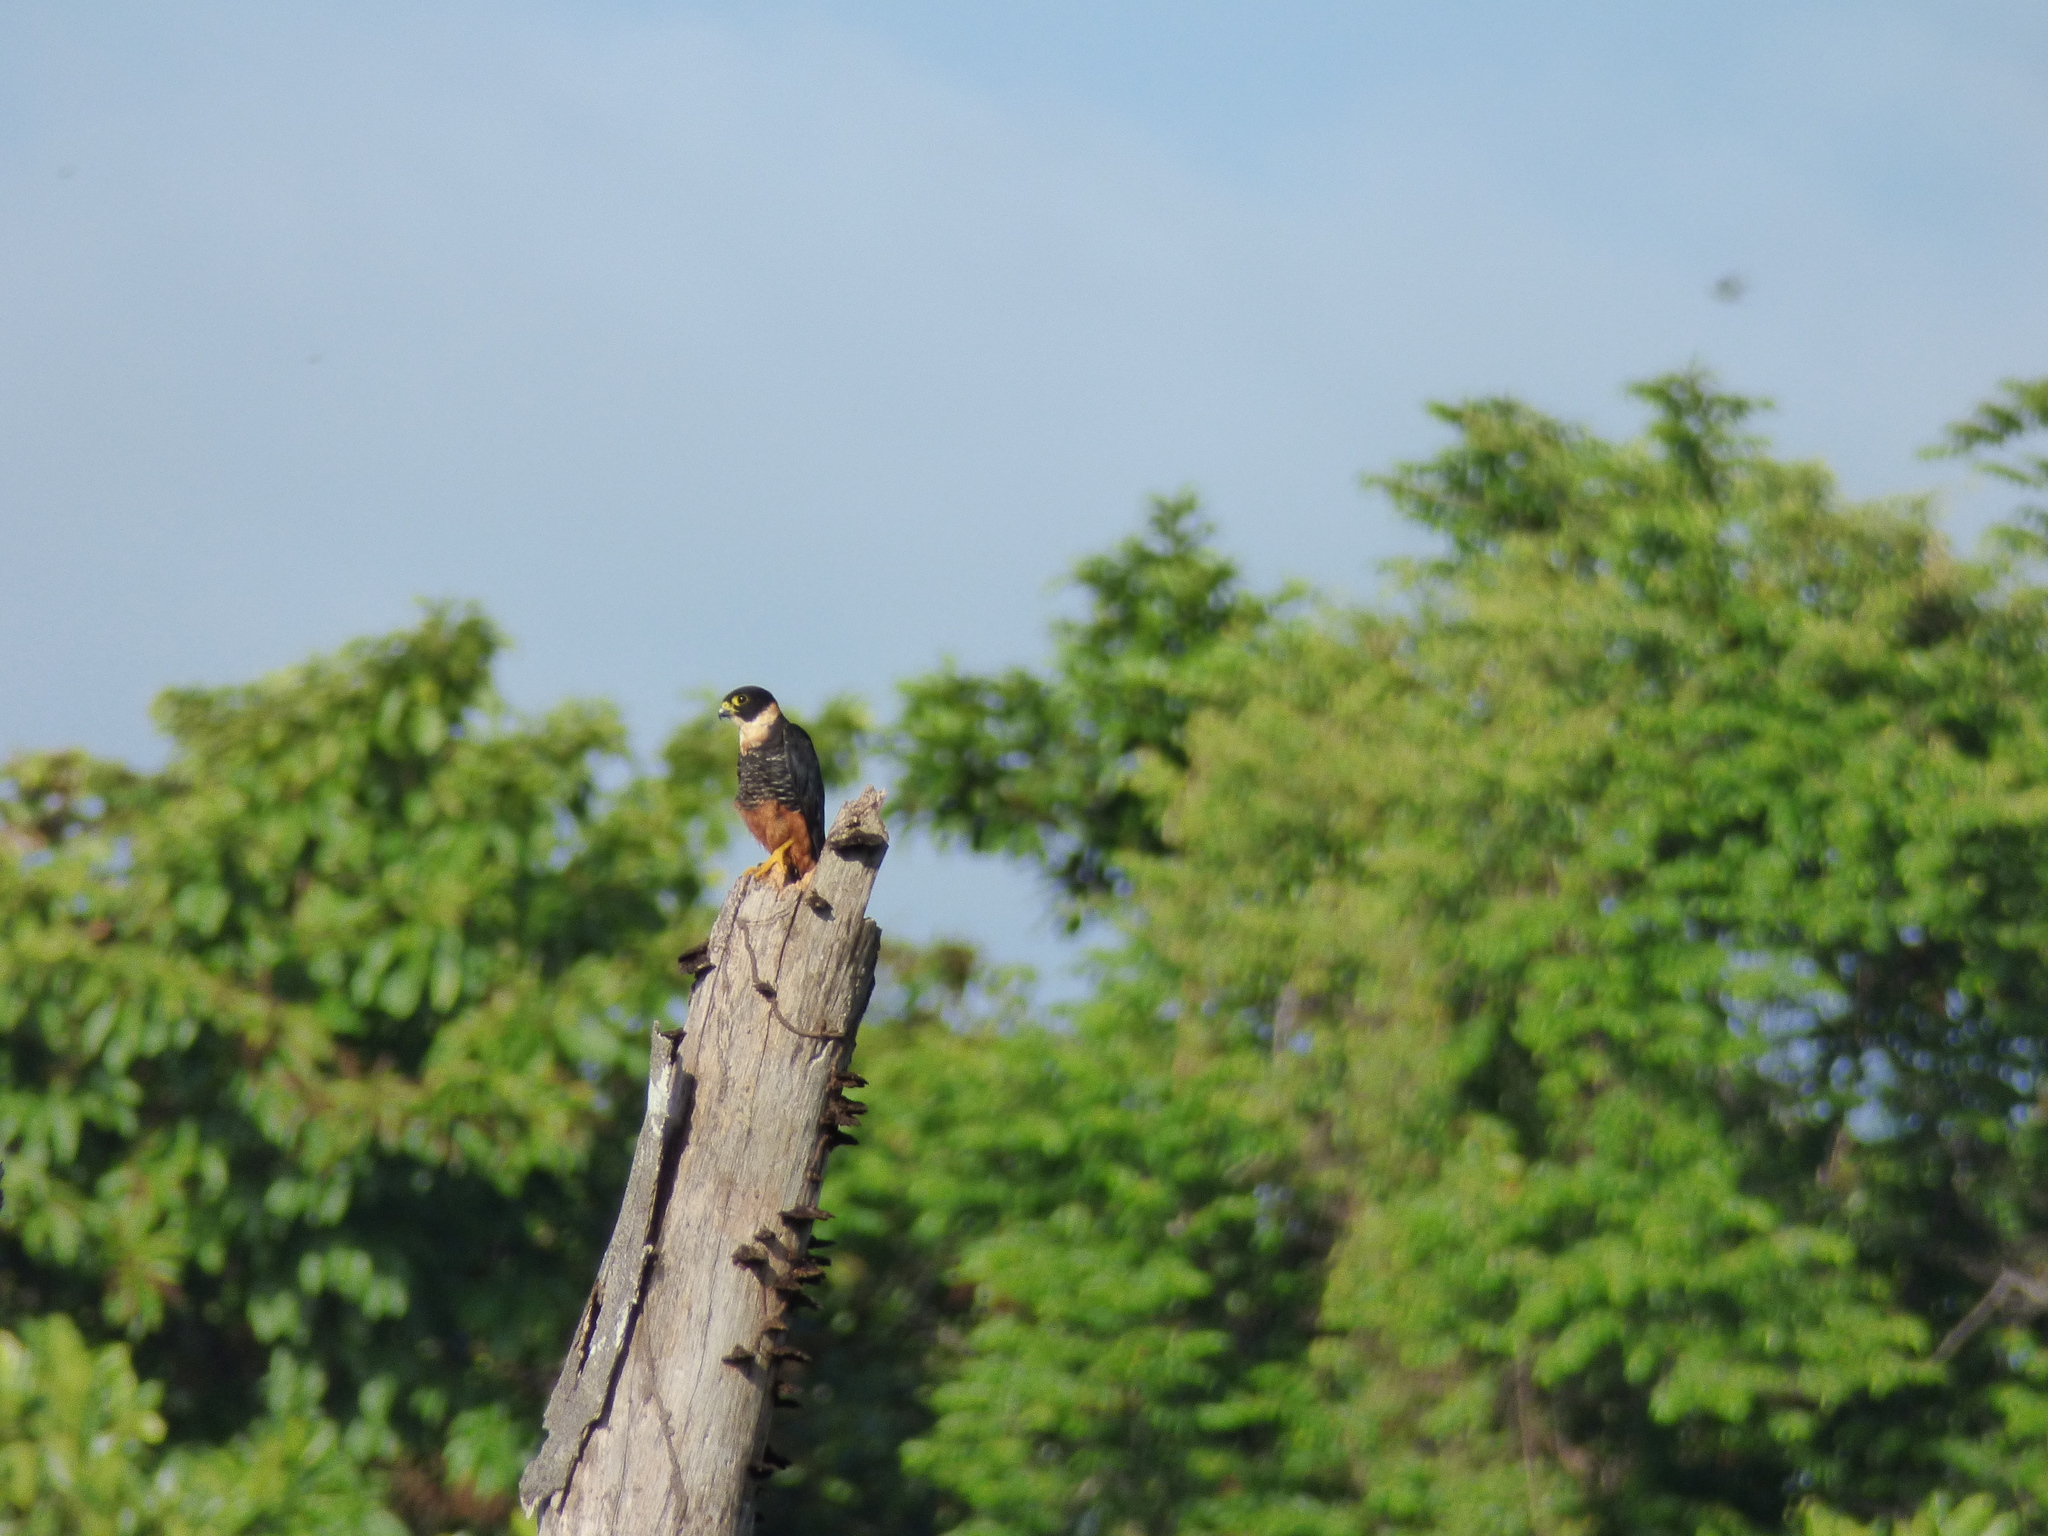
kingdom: Animalia
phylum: Chordata
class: Aves
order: Falconiformes
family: Falconidae
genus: Falco
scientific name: Falco rufigularis
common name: Bat falcon
